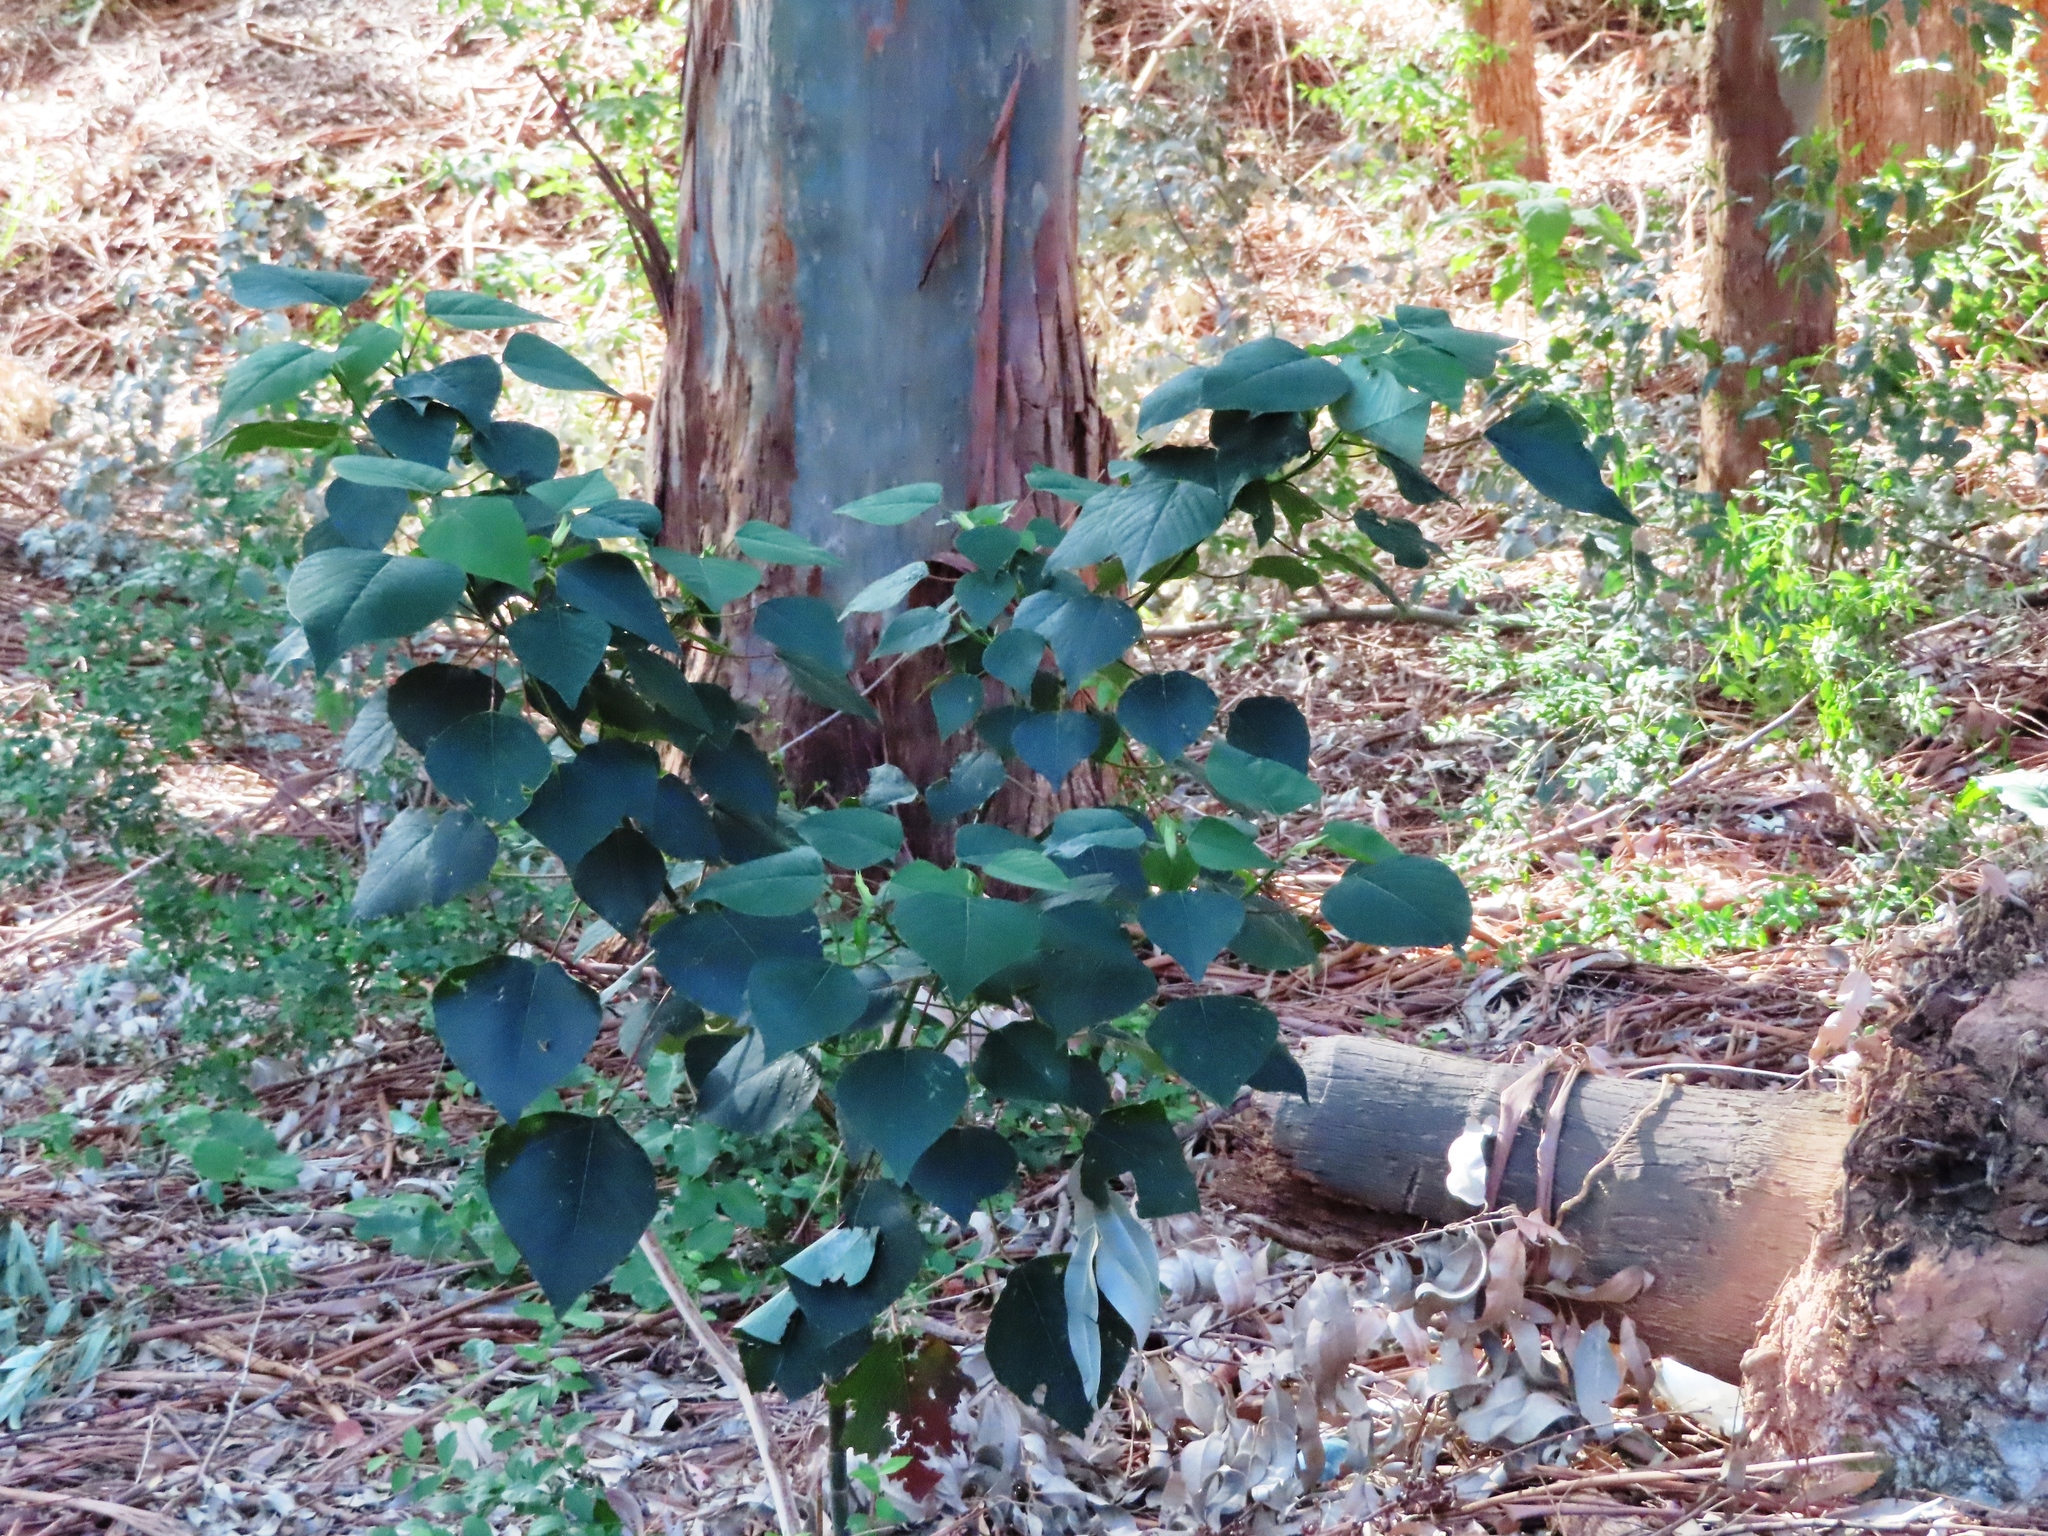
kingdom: Plantae
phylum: Tracheophyta
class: Magnoliopsida
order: Malpighiales
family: Euphorbiaceae
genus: Homalanthus
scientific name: Homalanthus populifolius
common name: Queensland poplar
